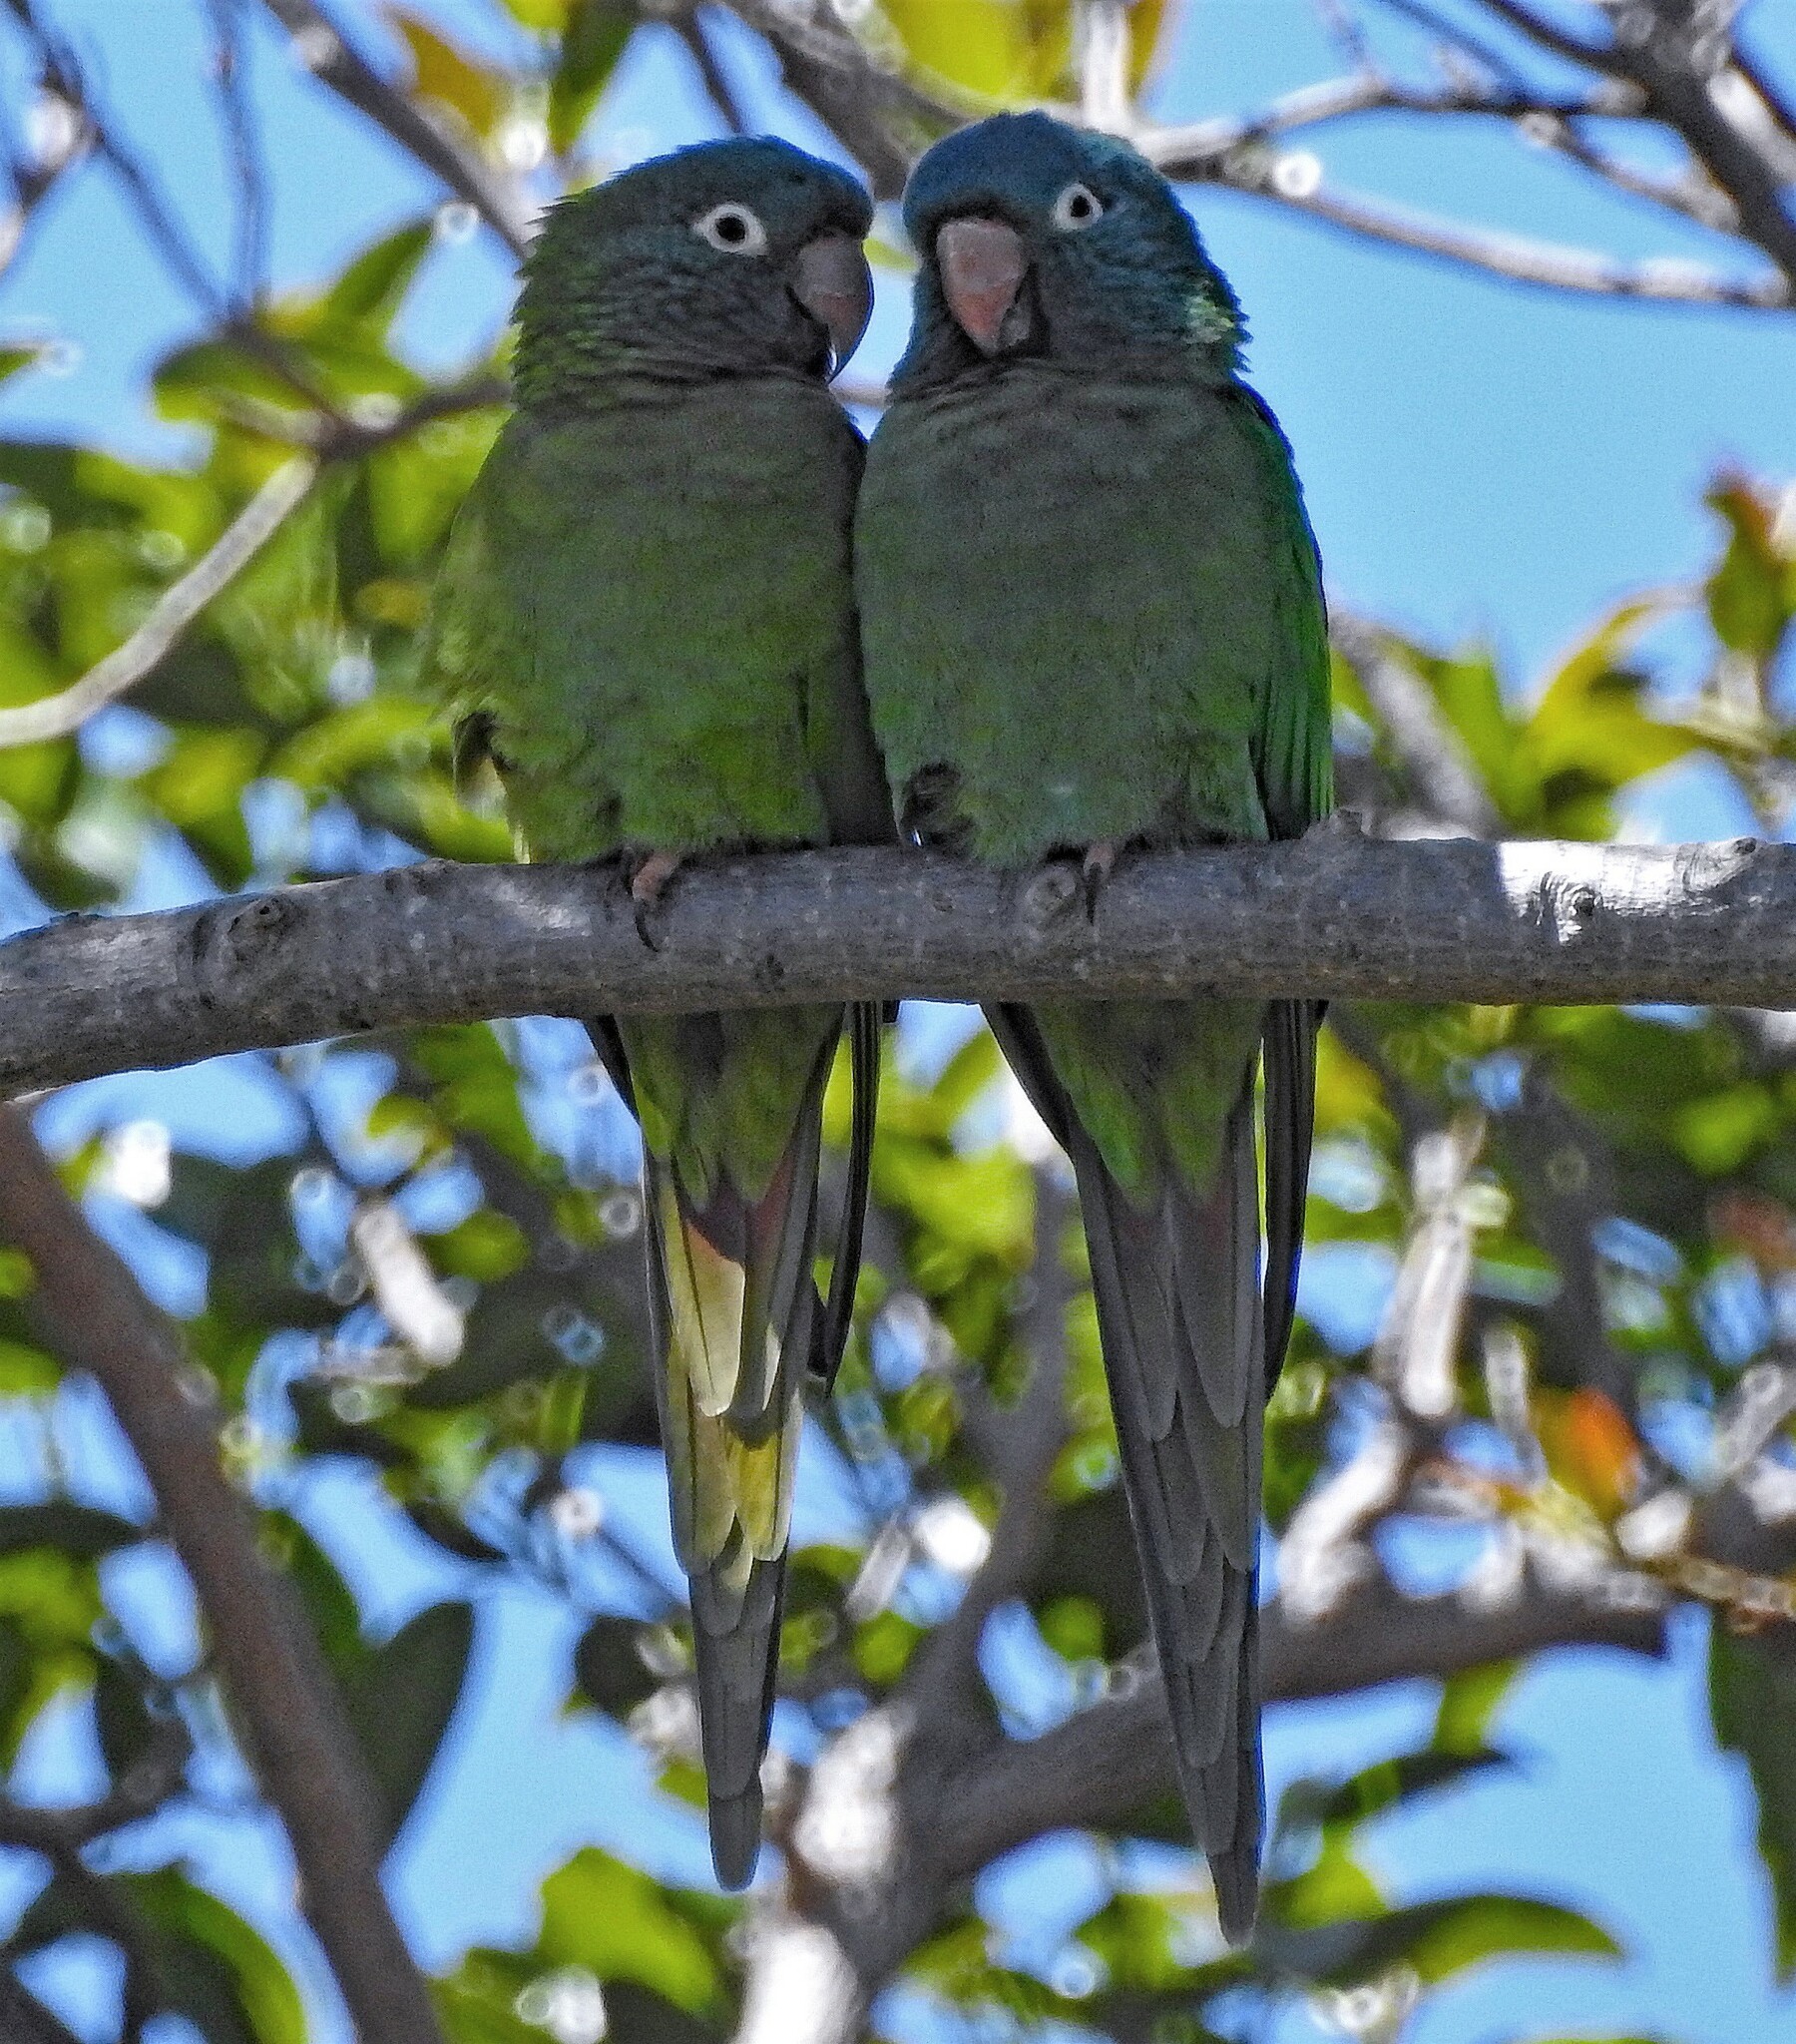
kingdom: Animalia
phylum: Chordata
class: Aves
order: Psittaciformes
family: Psittacidae
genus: Aratinga
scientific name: Aratinga acuticaudata
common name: Blue-crowned parakeet
